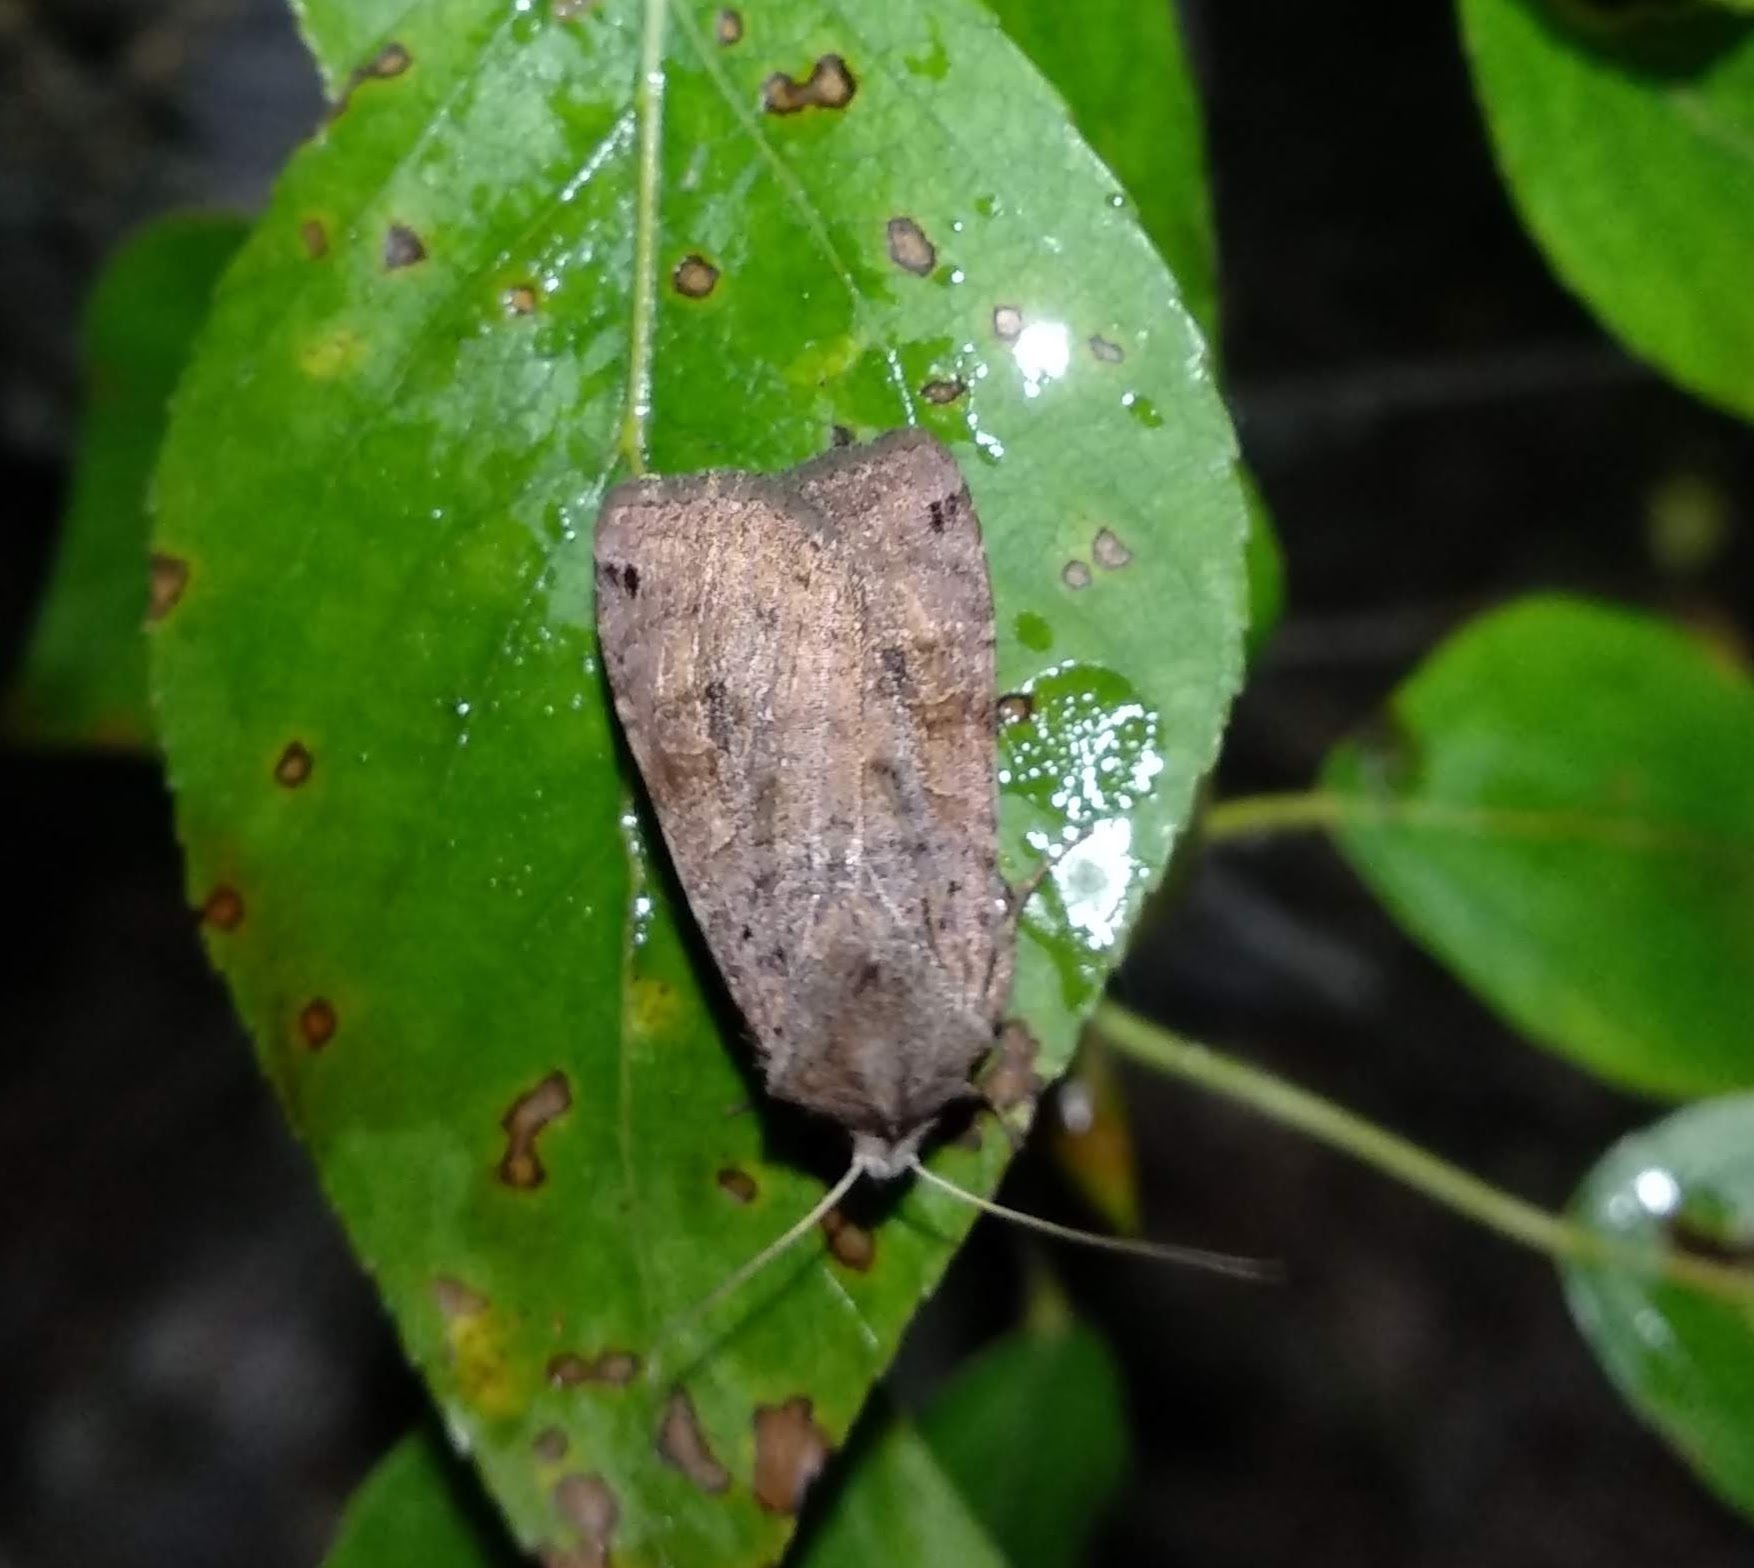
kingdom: Animalia
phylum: Arthropoda
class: Insecta
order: Lepidoptera
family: Noctuidae
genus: Xestia
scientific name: Xestia baja
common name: Dotted clay
